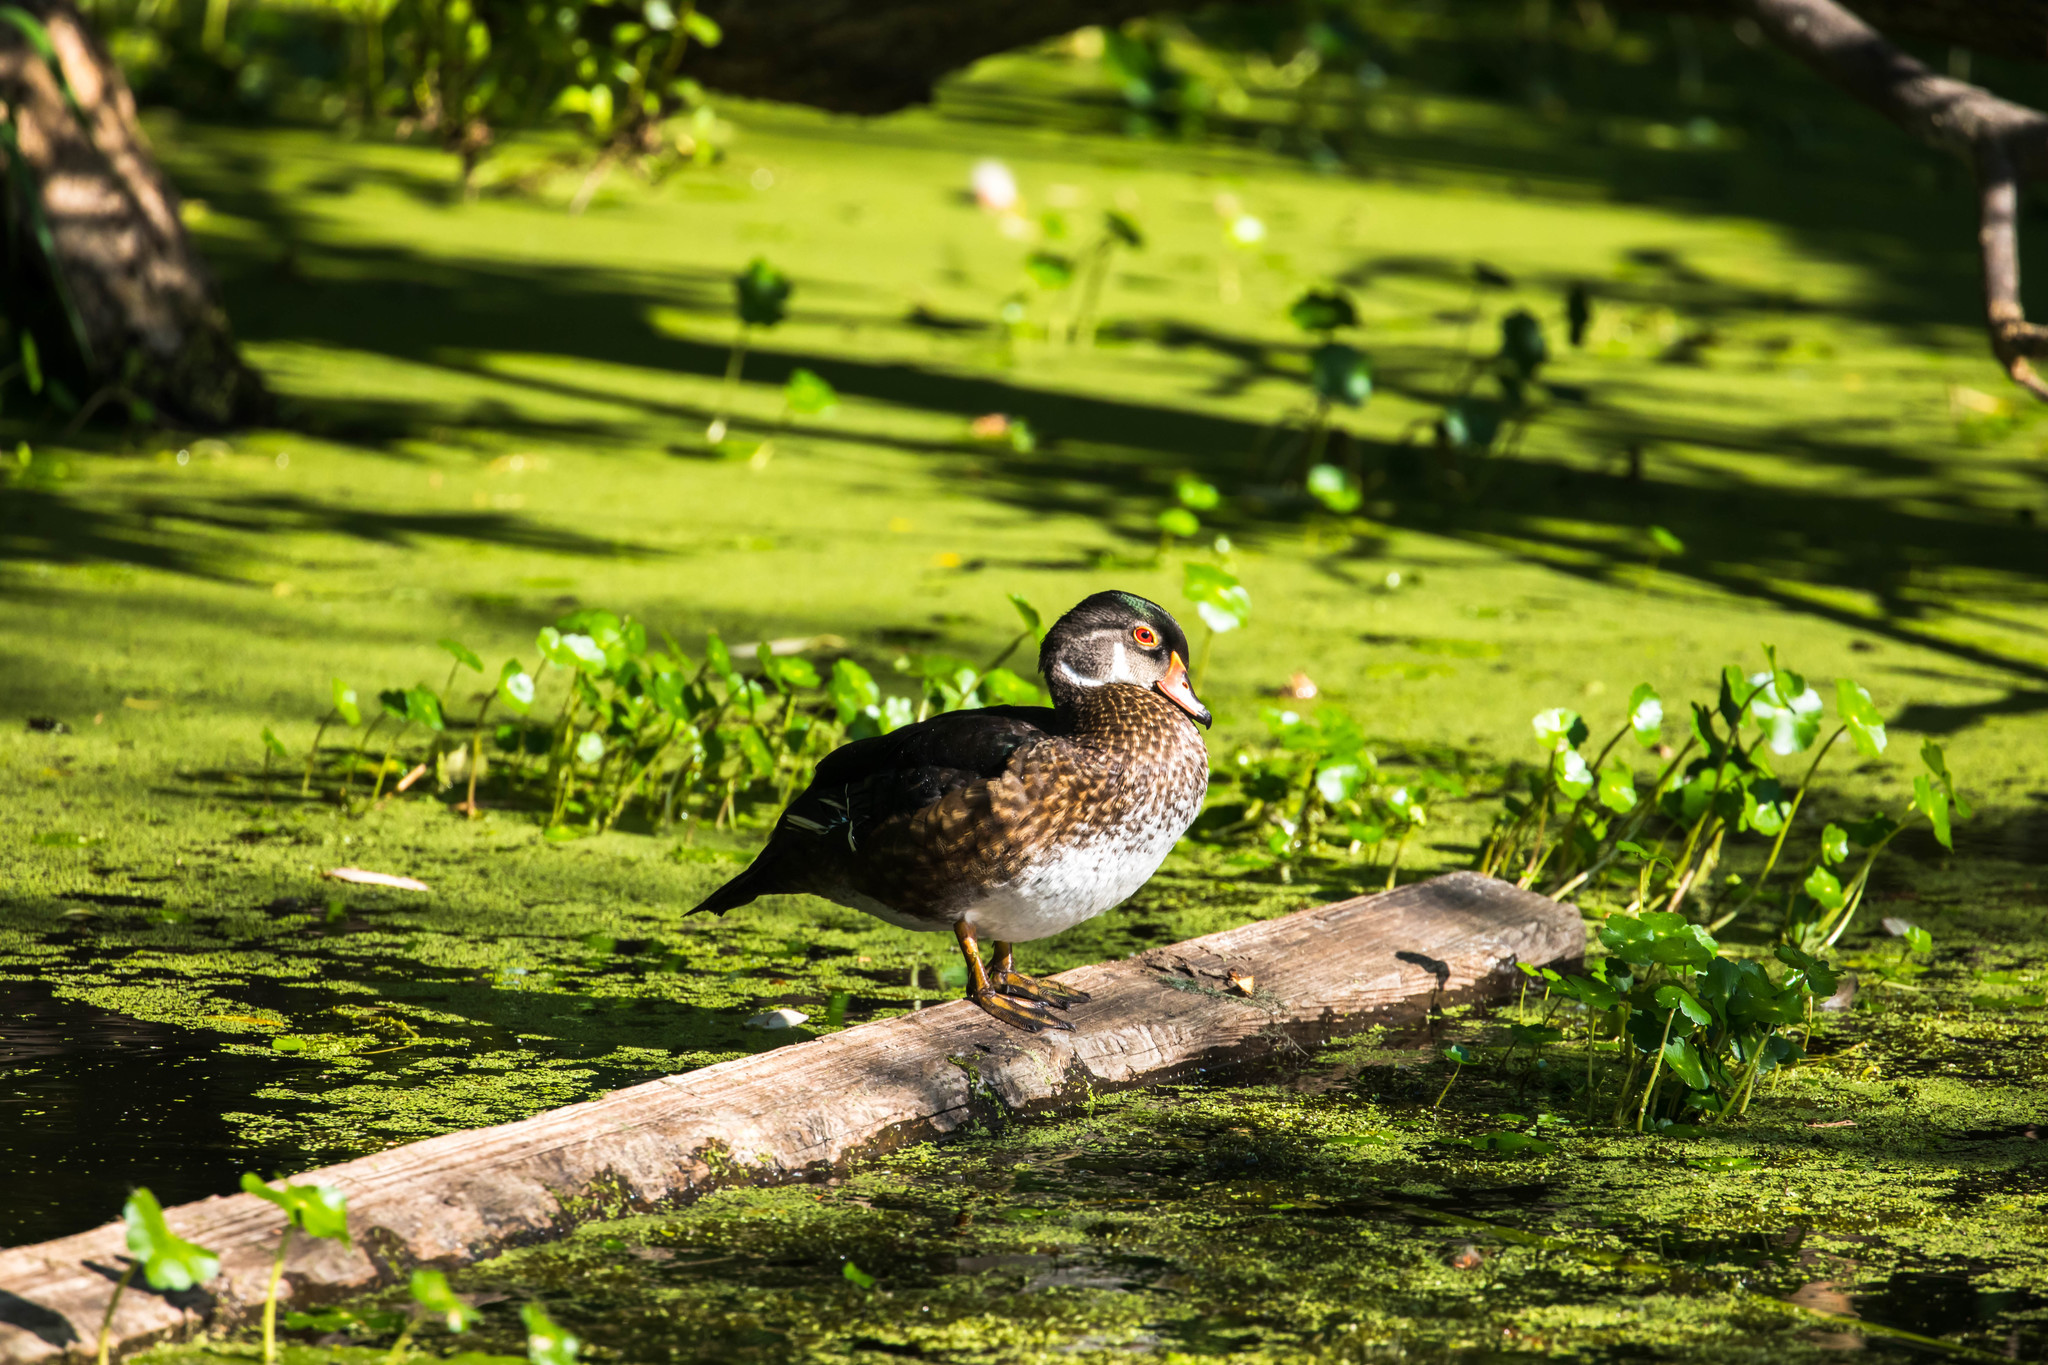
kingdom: Animalia
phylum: Chordata
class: Aves
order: Anseriformes
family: Anatidae
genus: Aix
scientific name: Aix sponsa
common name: Wood duck
